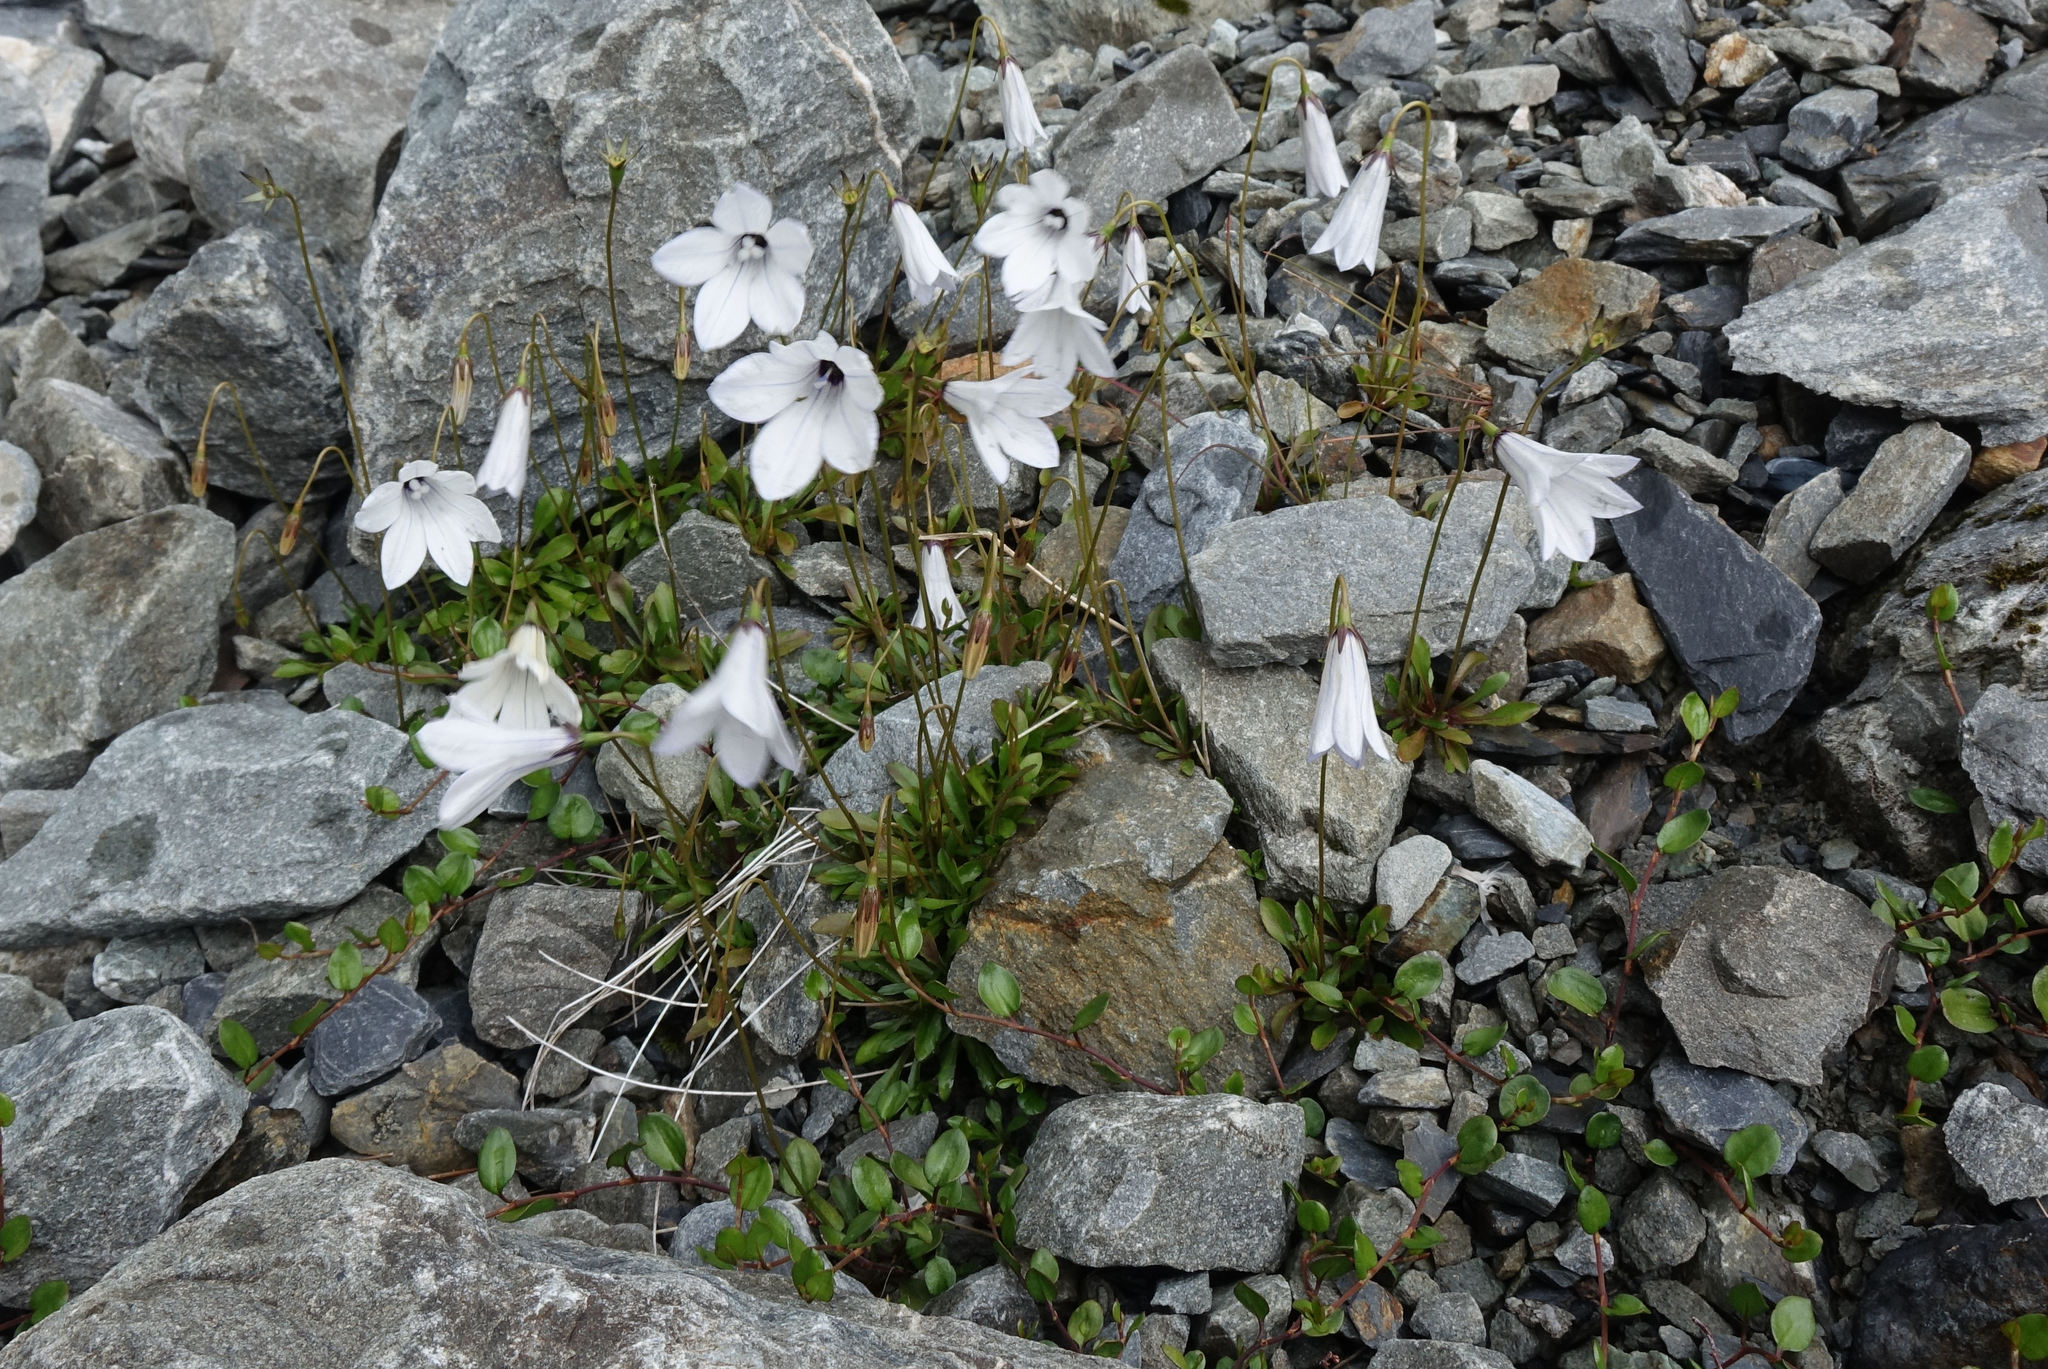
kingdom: Plantae
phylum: Tracheophyta
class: Magnoliopsida
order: Asterales
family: Campanulaceae
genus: Wahlenbergia
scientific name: Wahlenbergia albomarginata
